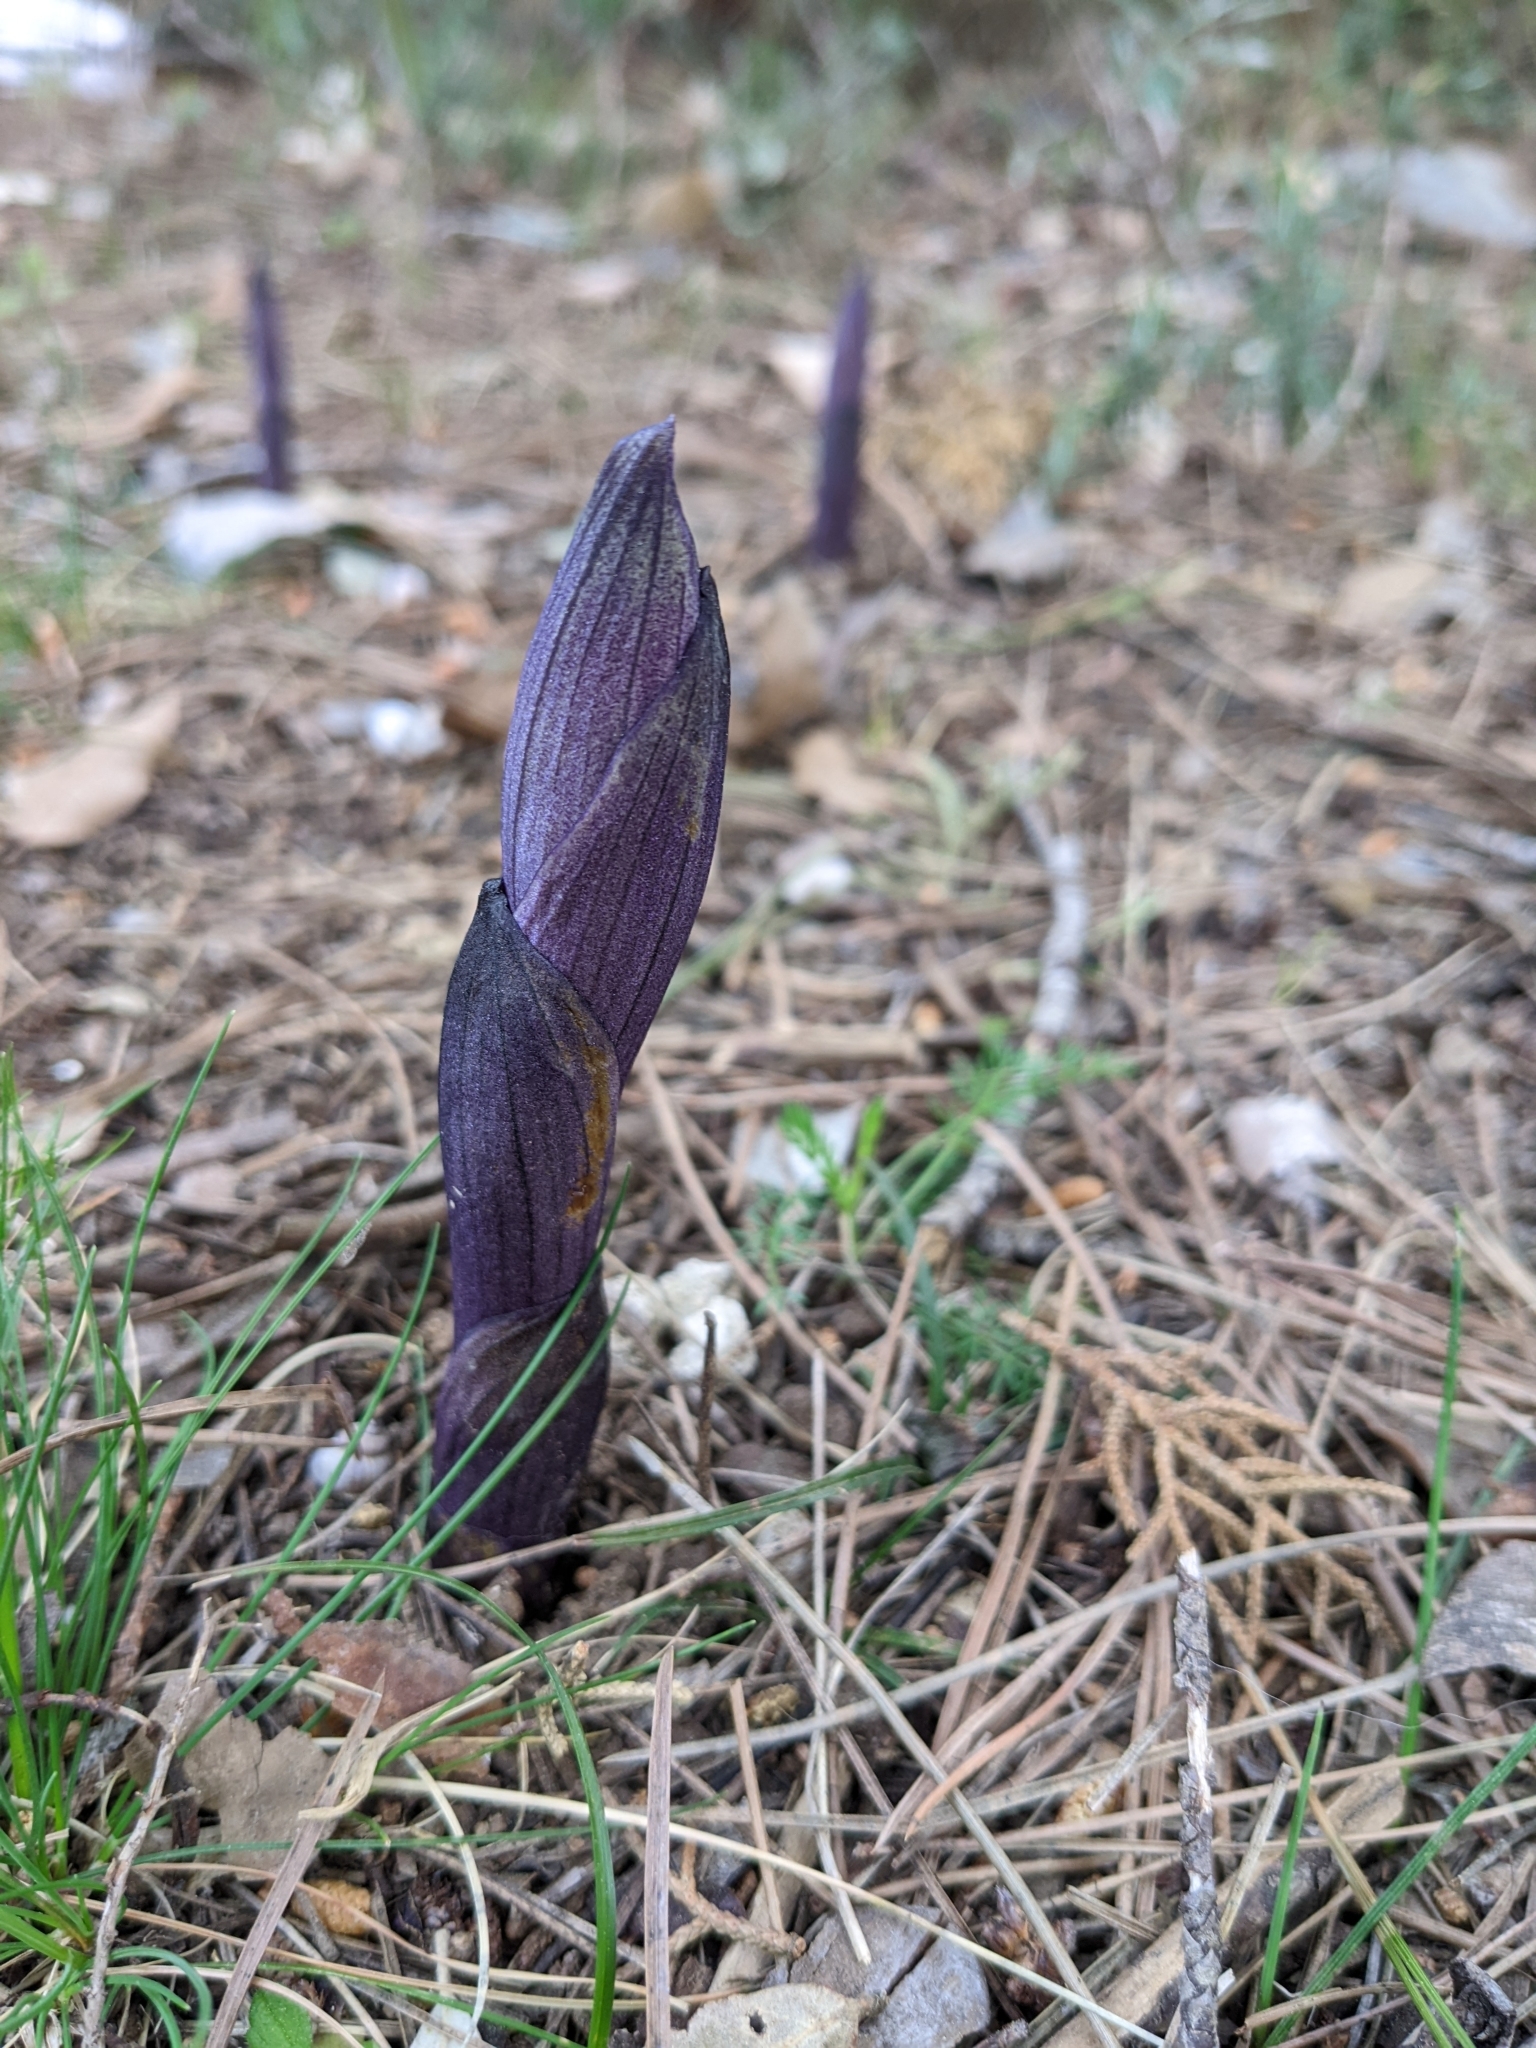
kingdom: Plantae
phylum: Tracheophyta
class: Liliopsida
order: Asparagales
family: Orchidaceae
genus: Limodorum
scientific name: Limodorum abortivum
